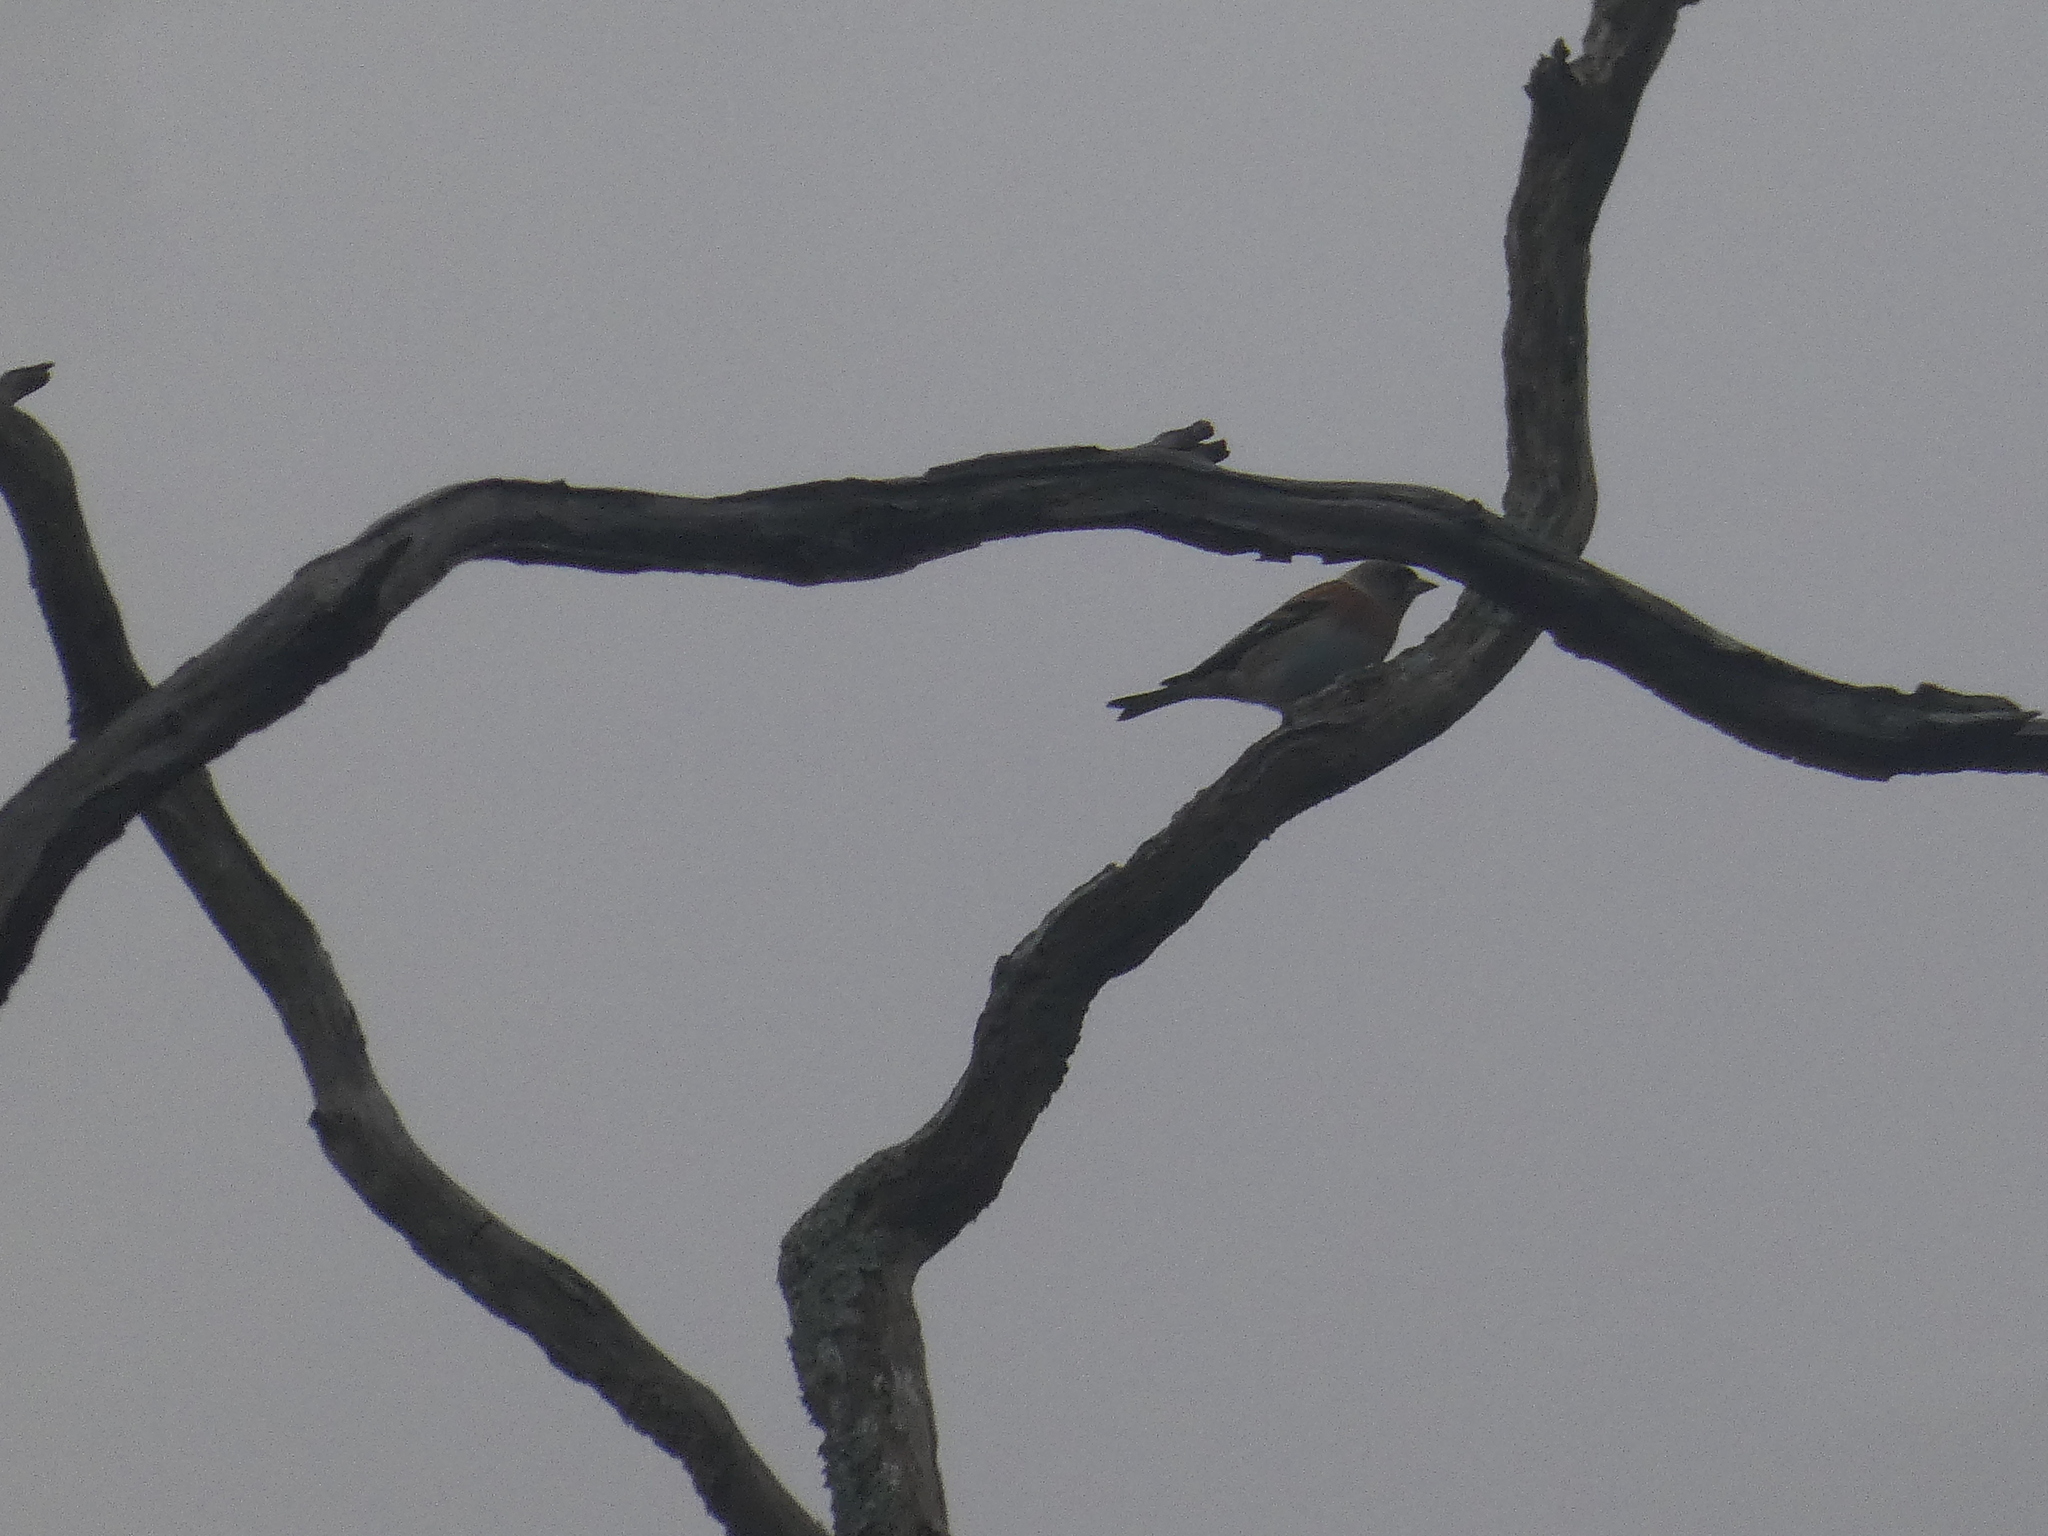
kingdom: Animalia
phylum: Chordata
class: Aves
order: Passeriformes
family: Fringillidae
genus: Fringilla
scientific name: Fringilla montifringilla
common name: Brambling
